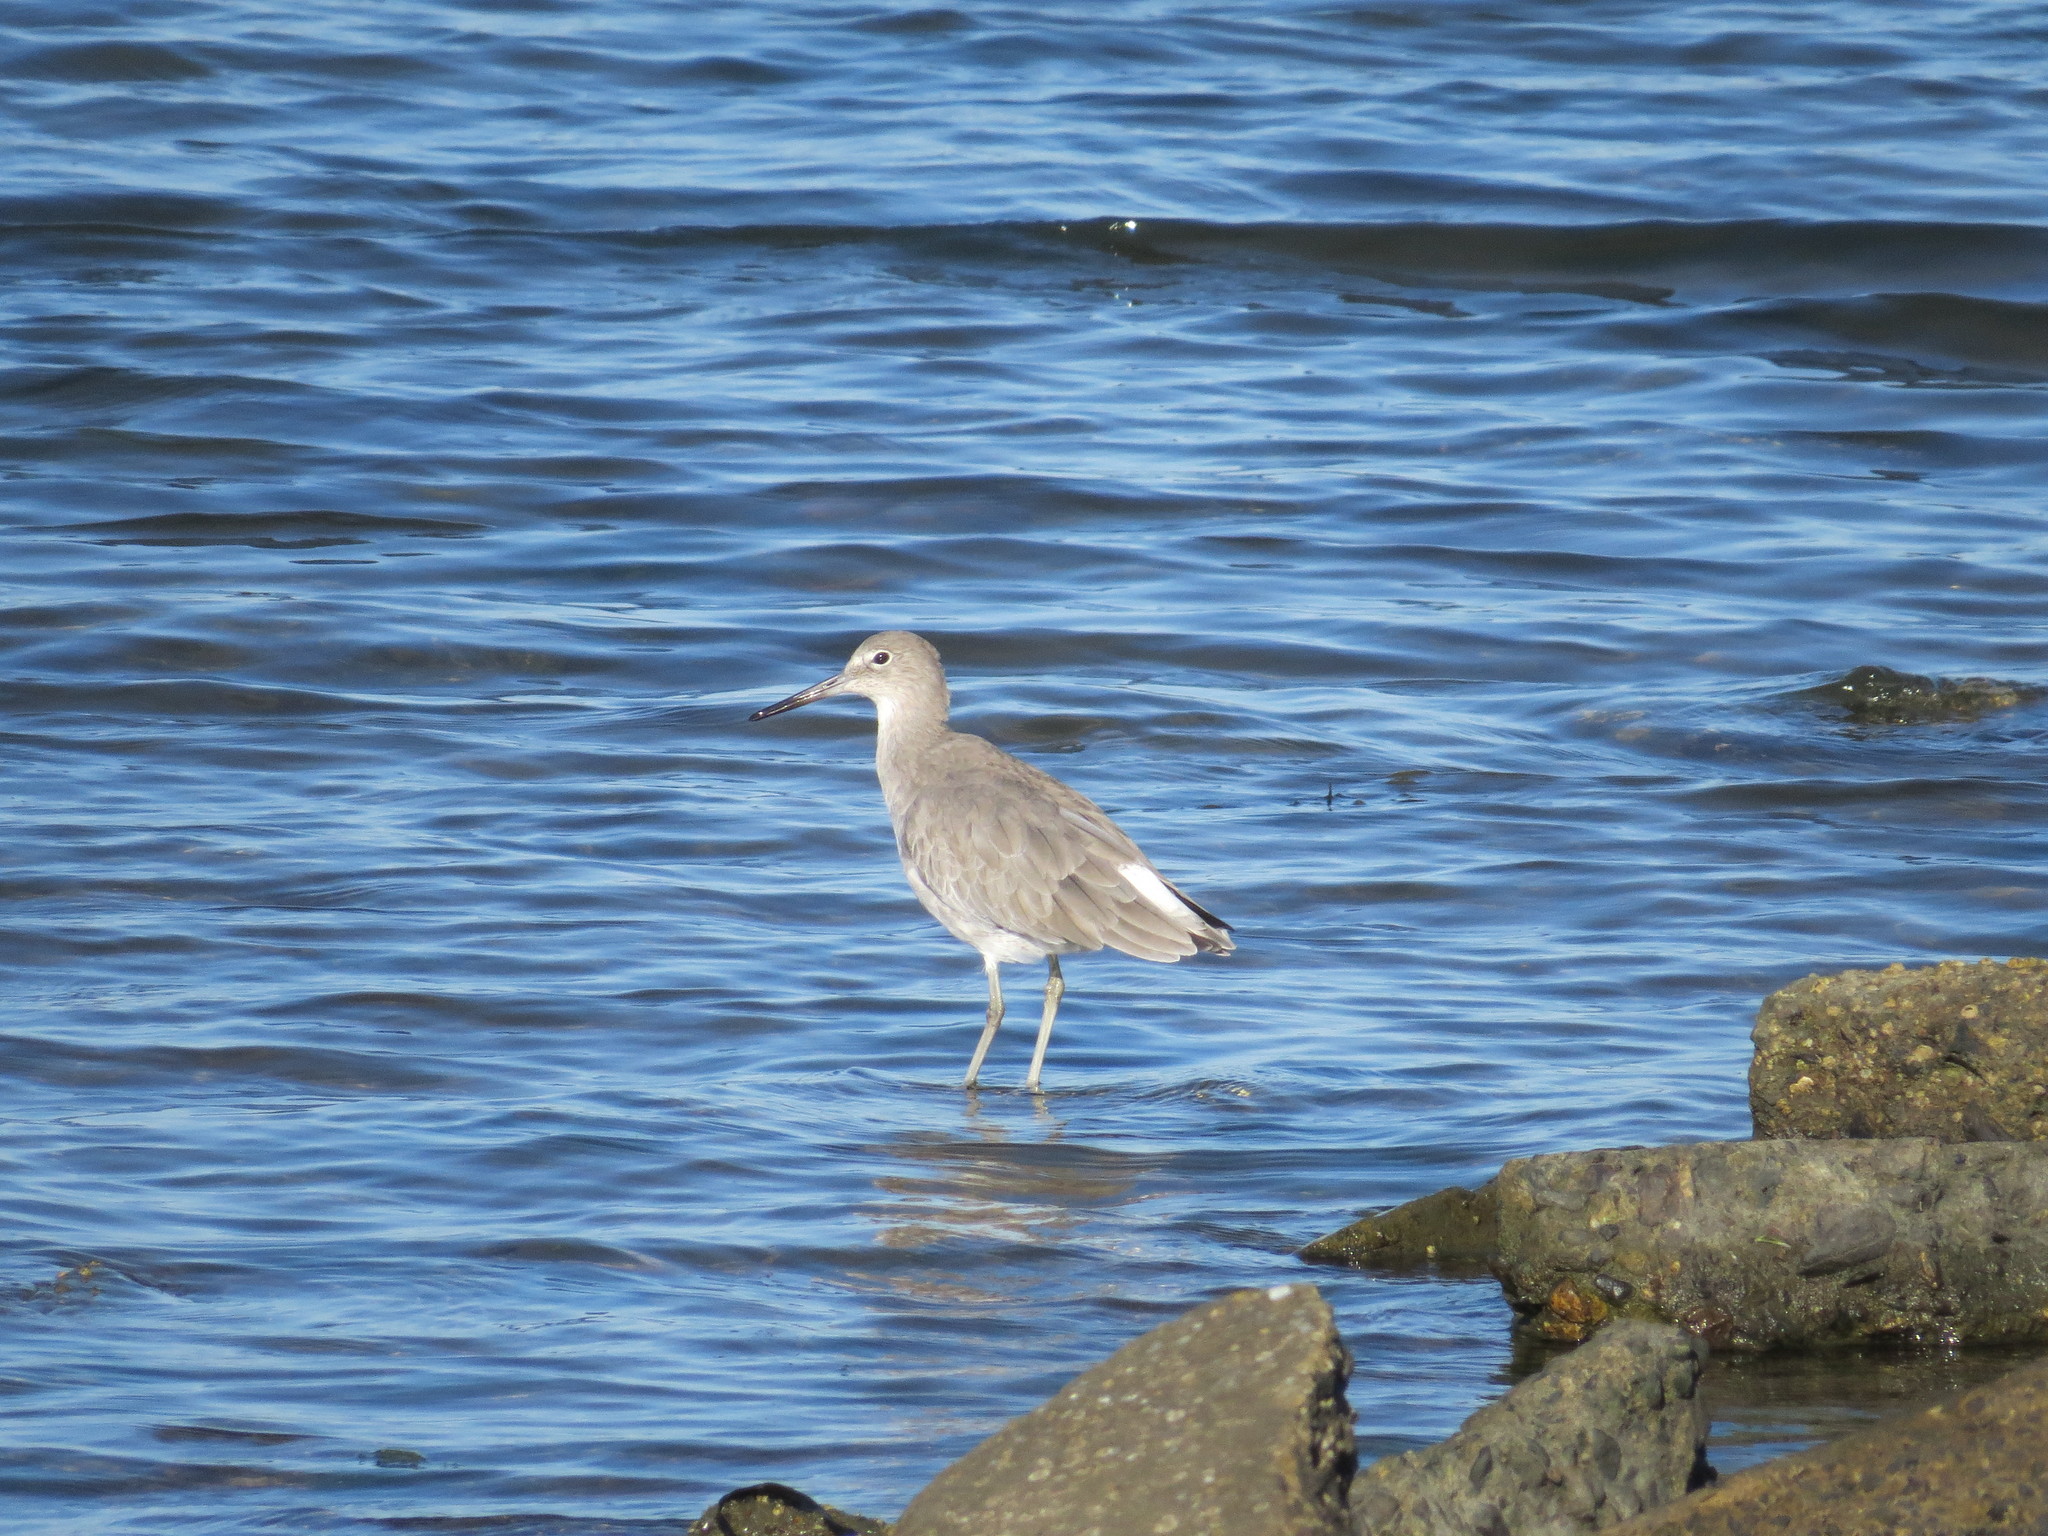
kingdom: Animalia
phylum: Chordata
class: Aves
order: Charadriiformes
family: Scolopacidae
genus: Tringa
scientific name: Tringa semipalmata
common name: Willet
